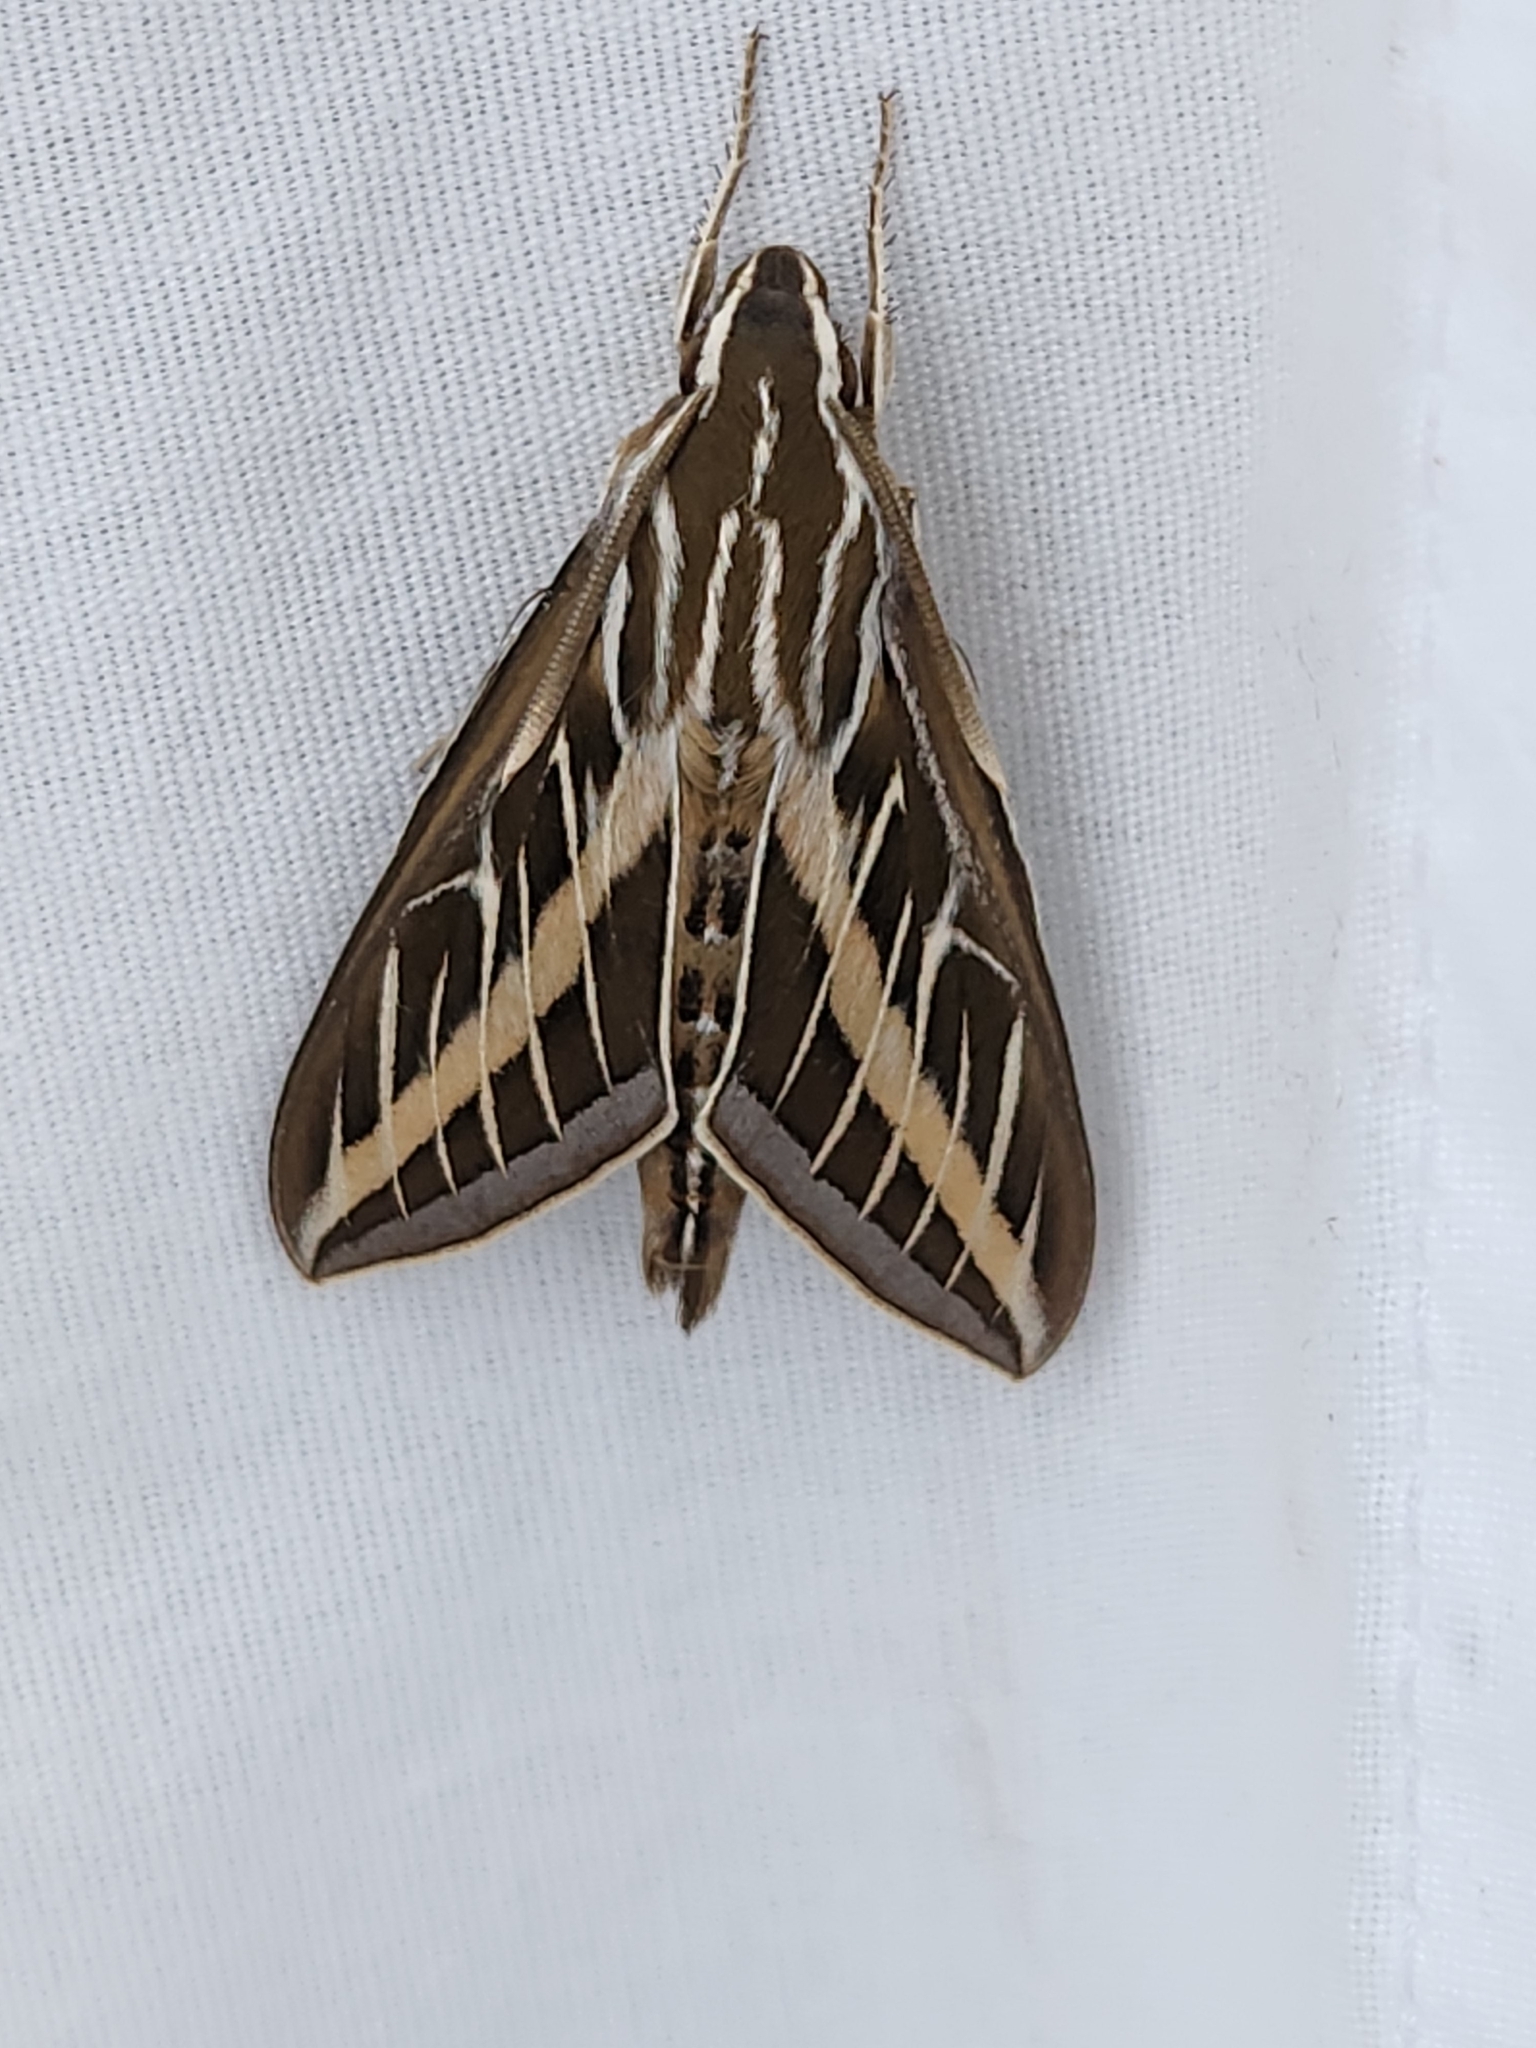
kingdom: Animalia
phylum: Arthropoda
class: Insecta
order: Lepidoptera
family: Sphingidae
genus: Hyles
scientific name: Hyles lineata
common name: White-lined sphinx
